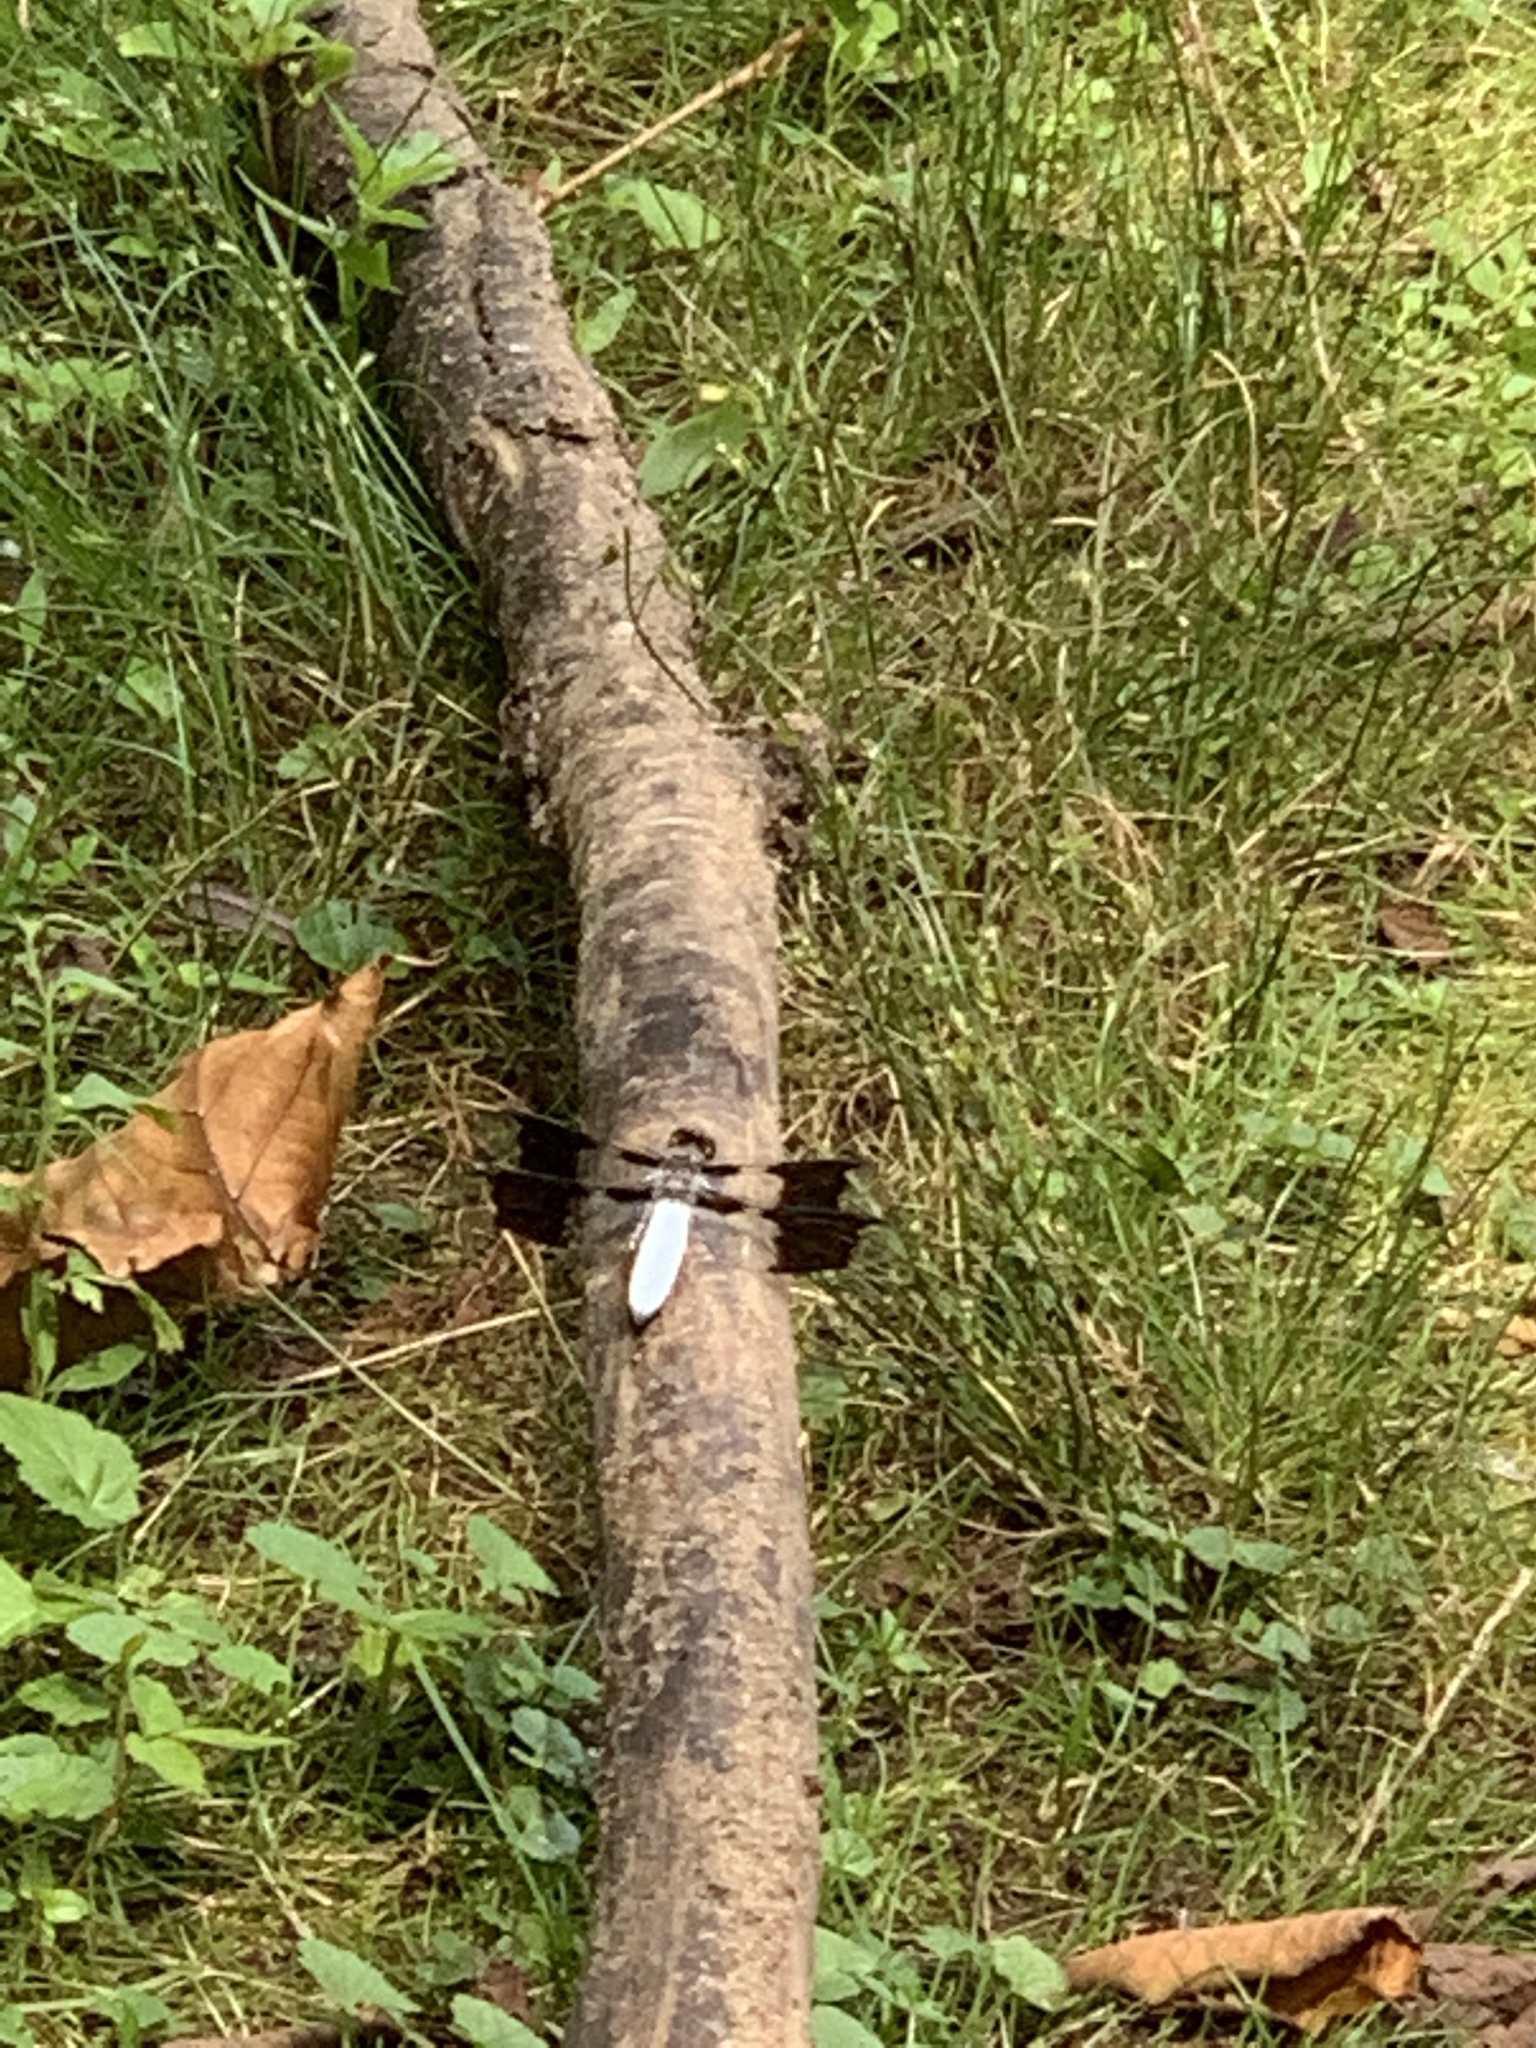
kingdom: Animalia
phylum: Arthropoda
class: Insecta
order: Odonata
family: Libellulidae
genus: Plathemis
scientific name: Plathemis lydia
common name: Common whitetail
